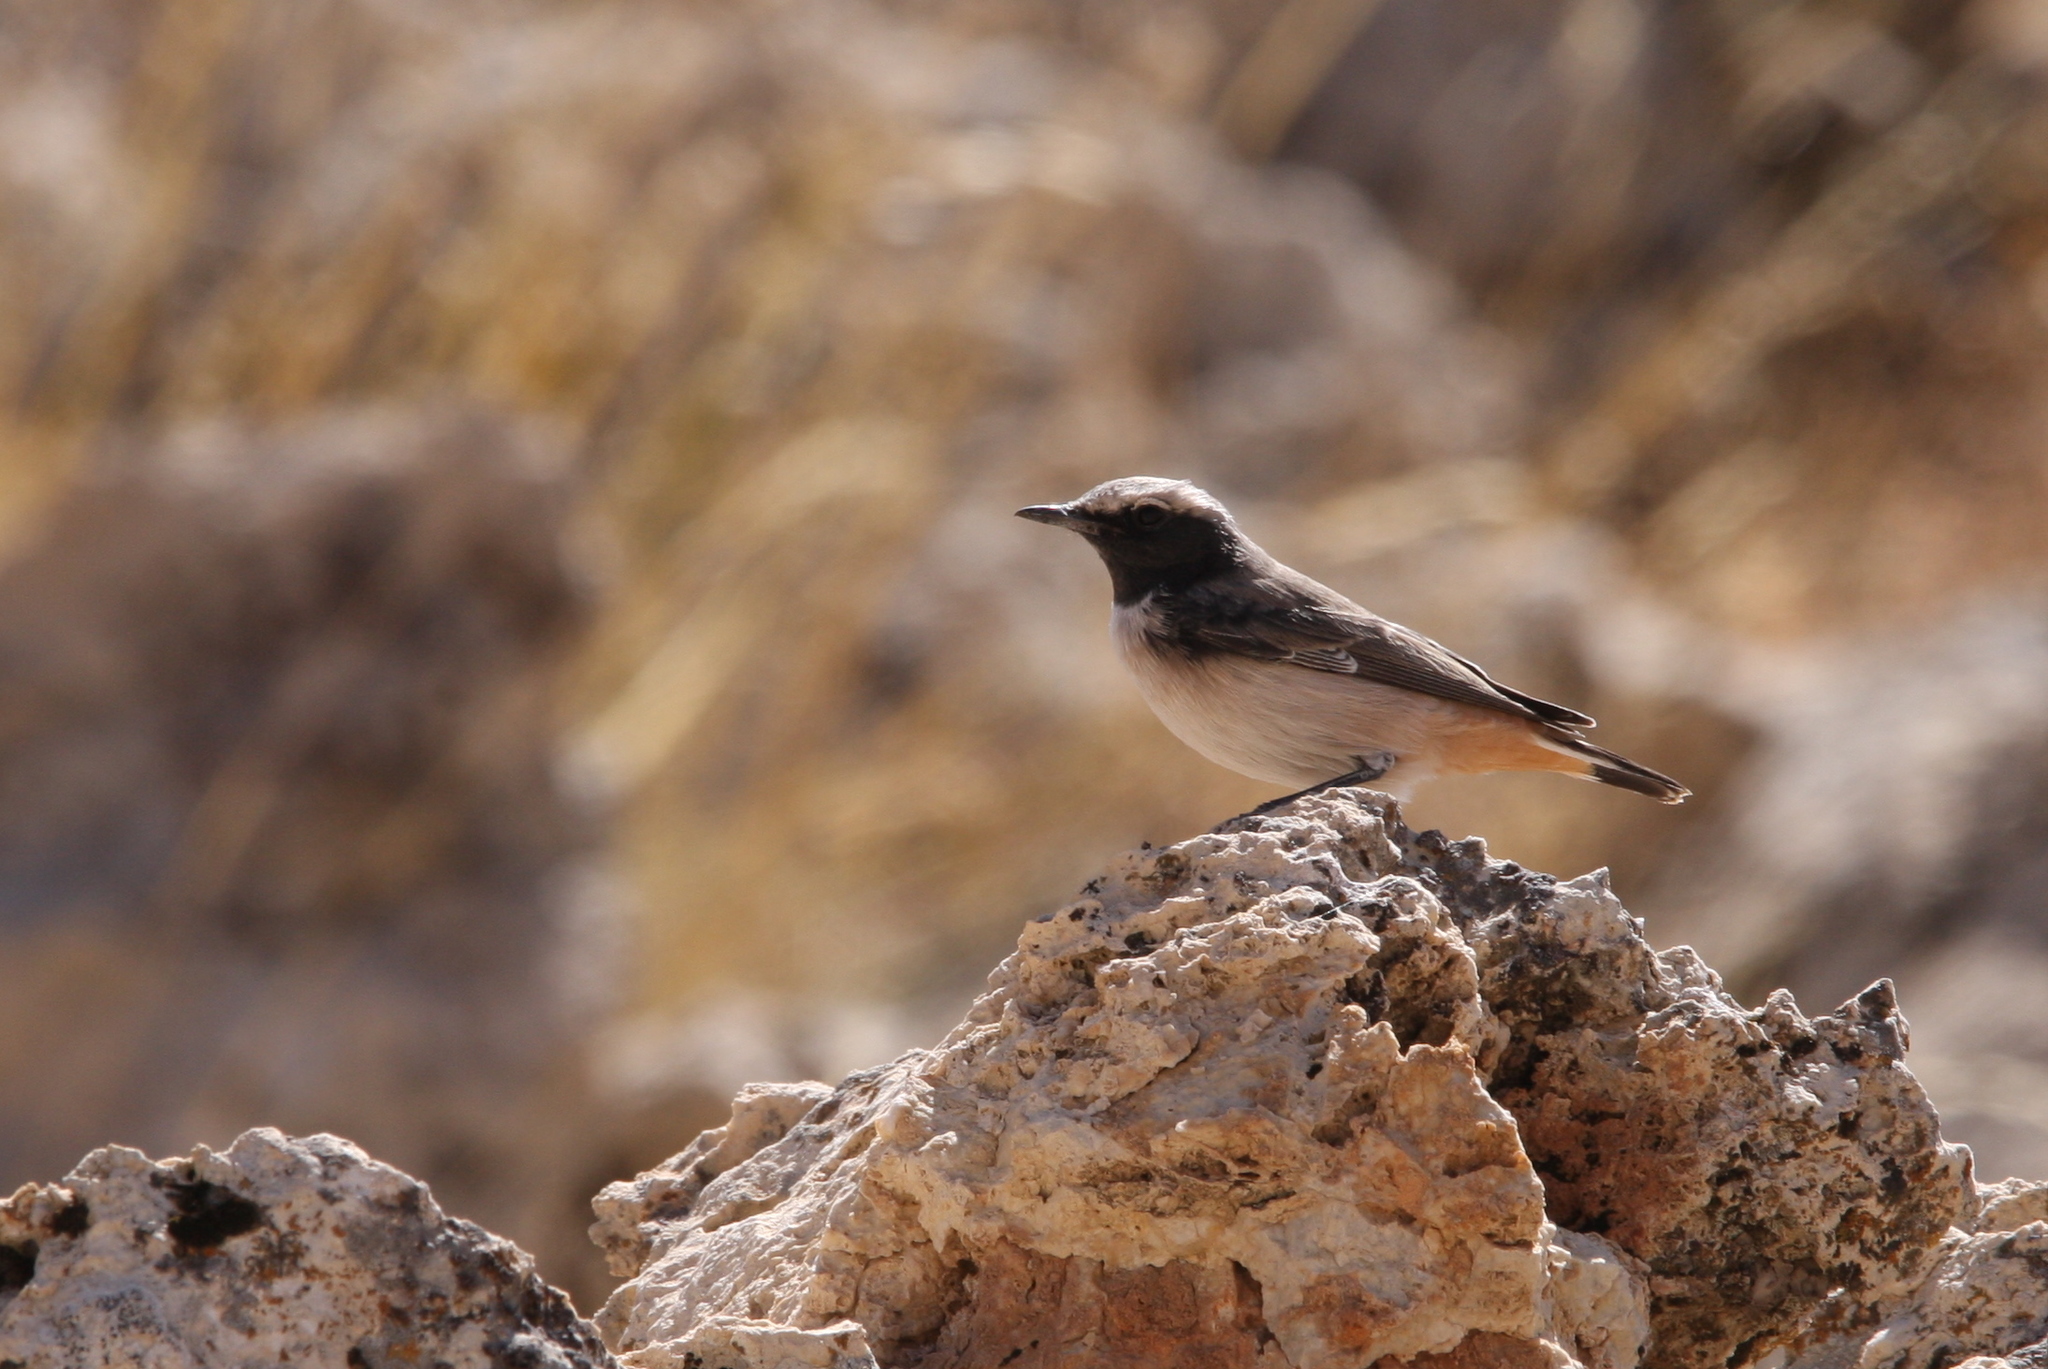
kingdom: Animalia
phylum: Chordata
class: Aves
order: Passeriformes
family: Muscicapidae
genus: Oenanthe
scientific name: Oenanthe xanthoprymna
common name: Kurdish wheatear
